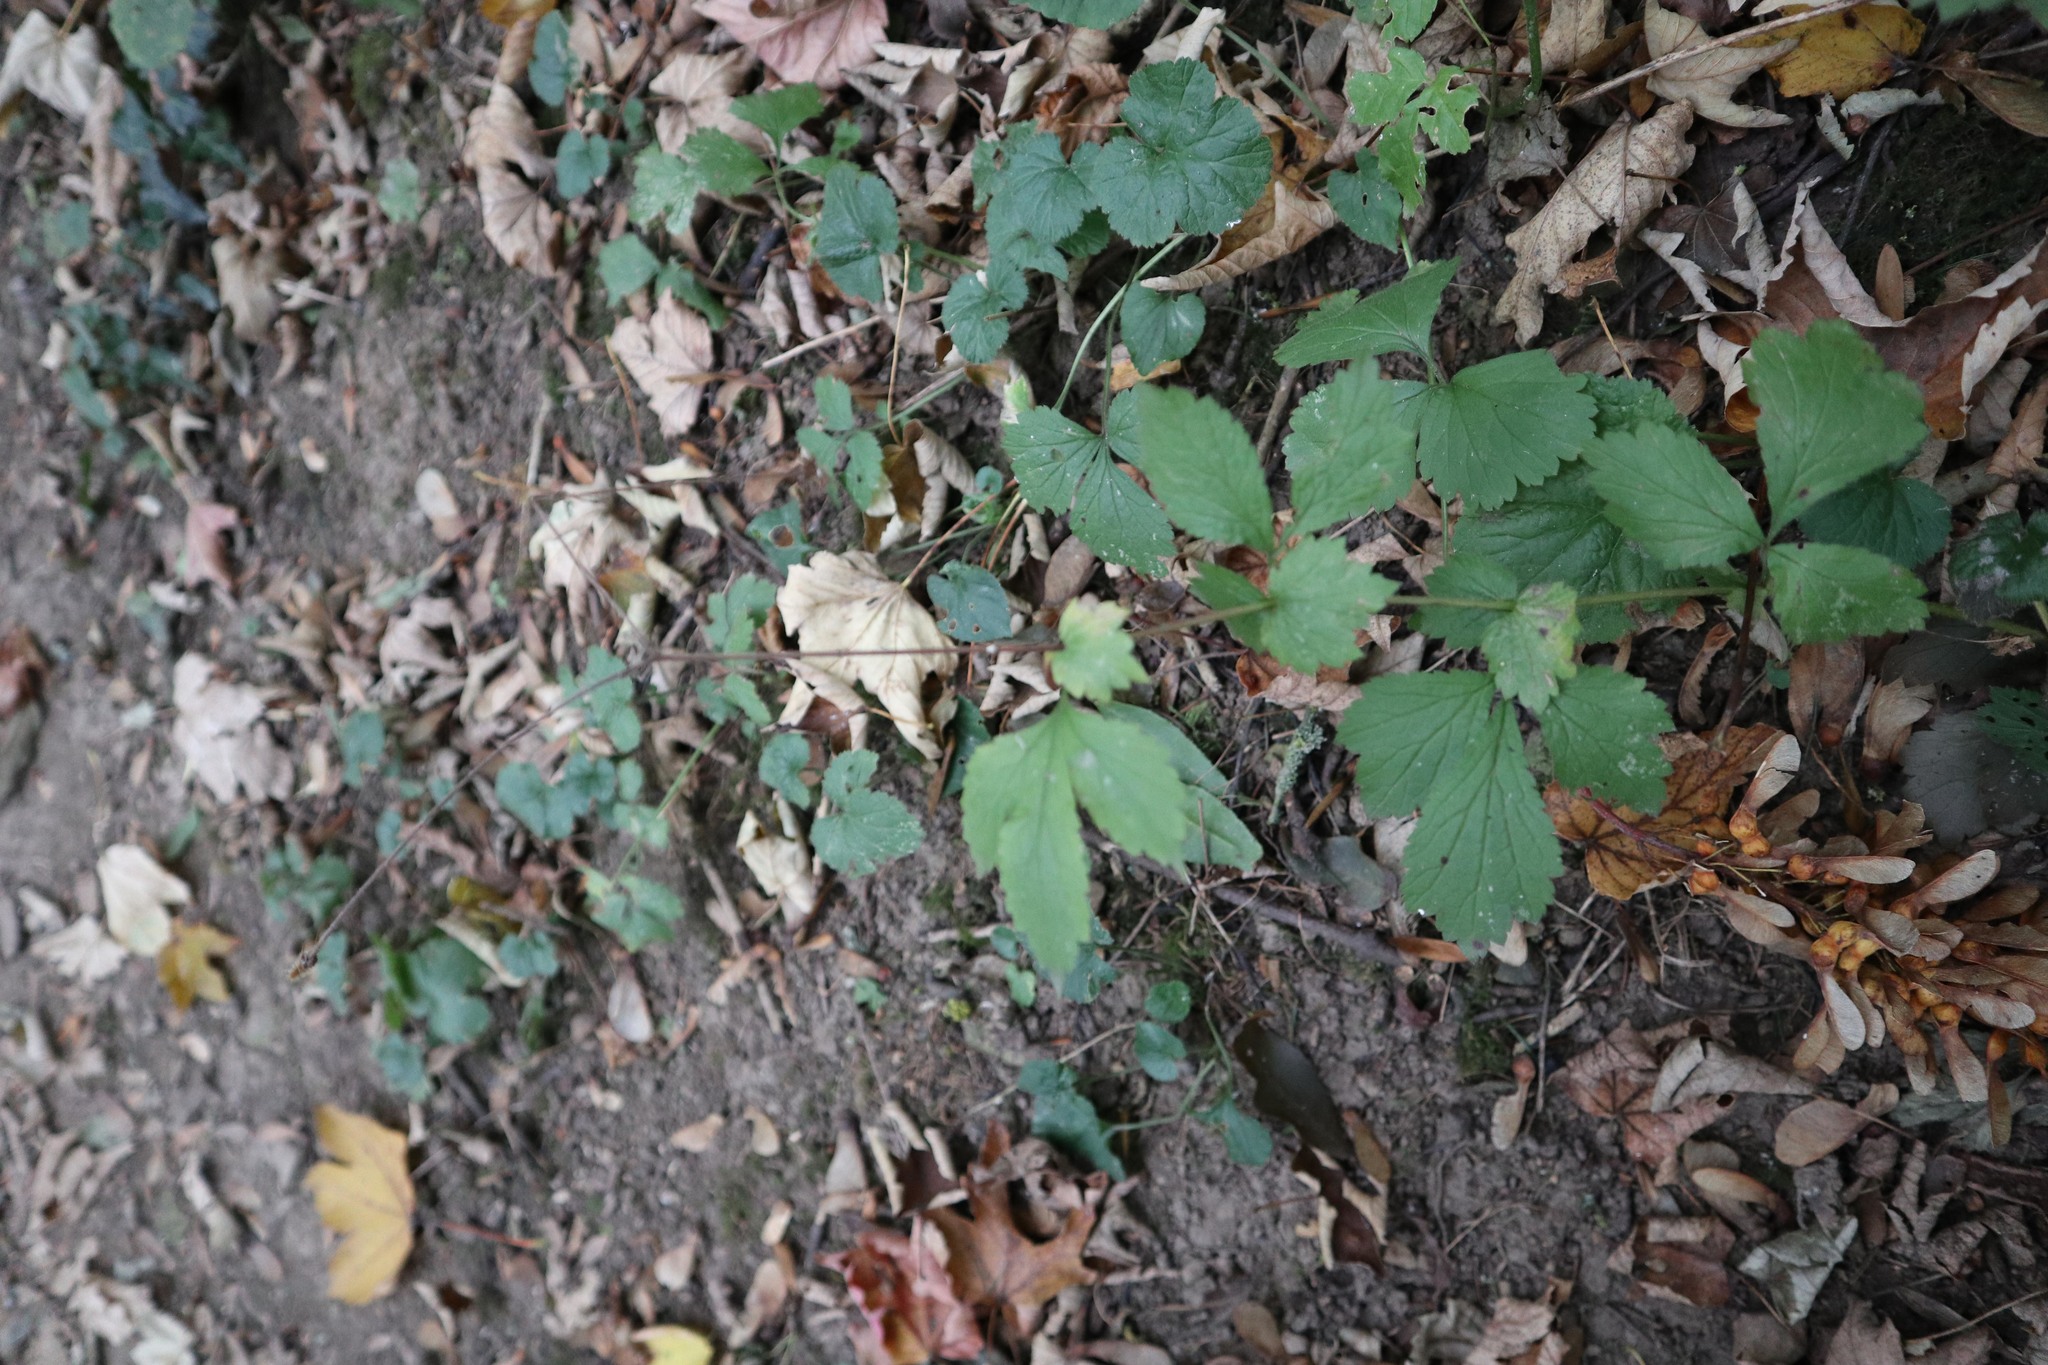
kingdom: Plantae
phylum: Tracheophyta
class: Magnoliopsida
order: Rosales
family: Rosaceae
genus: Geum
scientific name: Geum urbanum
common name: Wood avens
